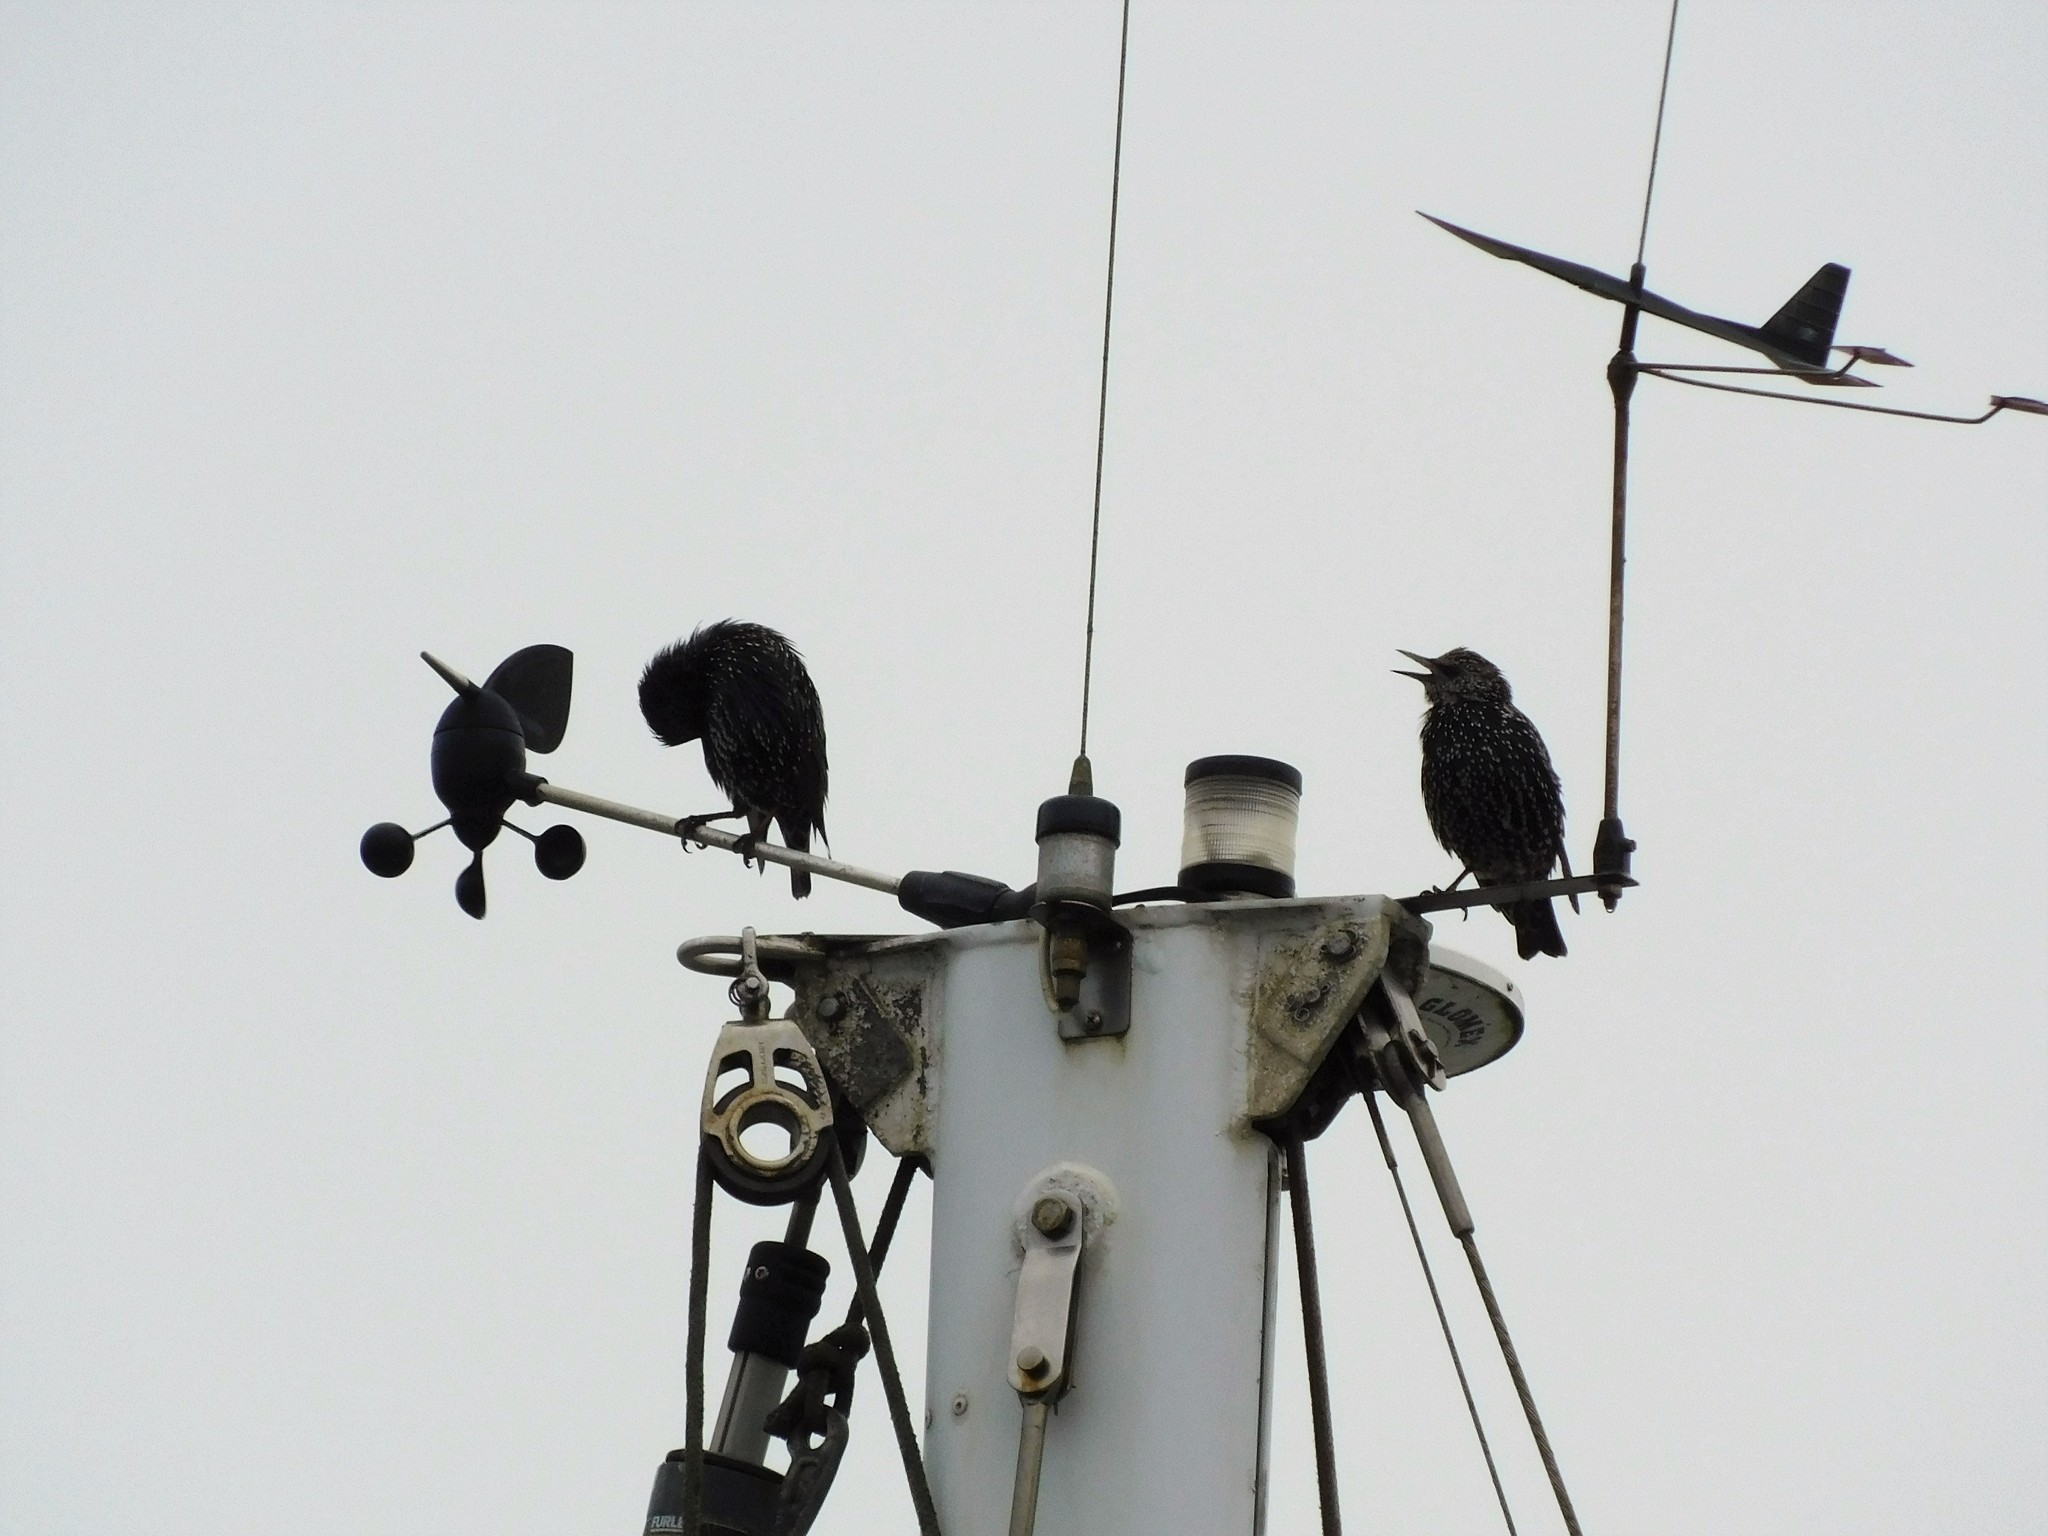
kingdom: Animalia
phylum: Chordata
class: Aves
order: Passeriformes
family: Sturnidae
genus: Sturnus
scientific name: Sturnus vulgaris
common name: Common starling
